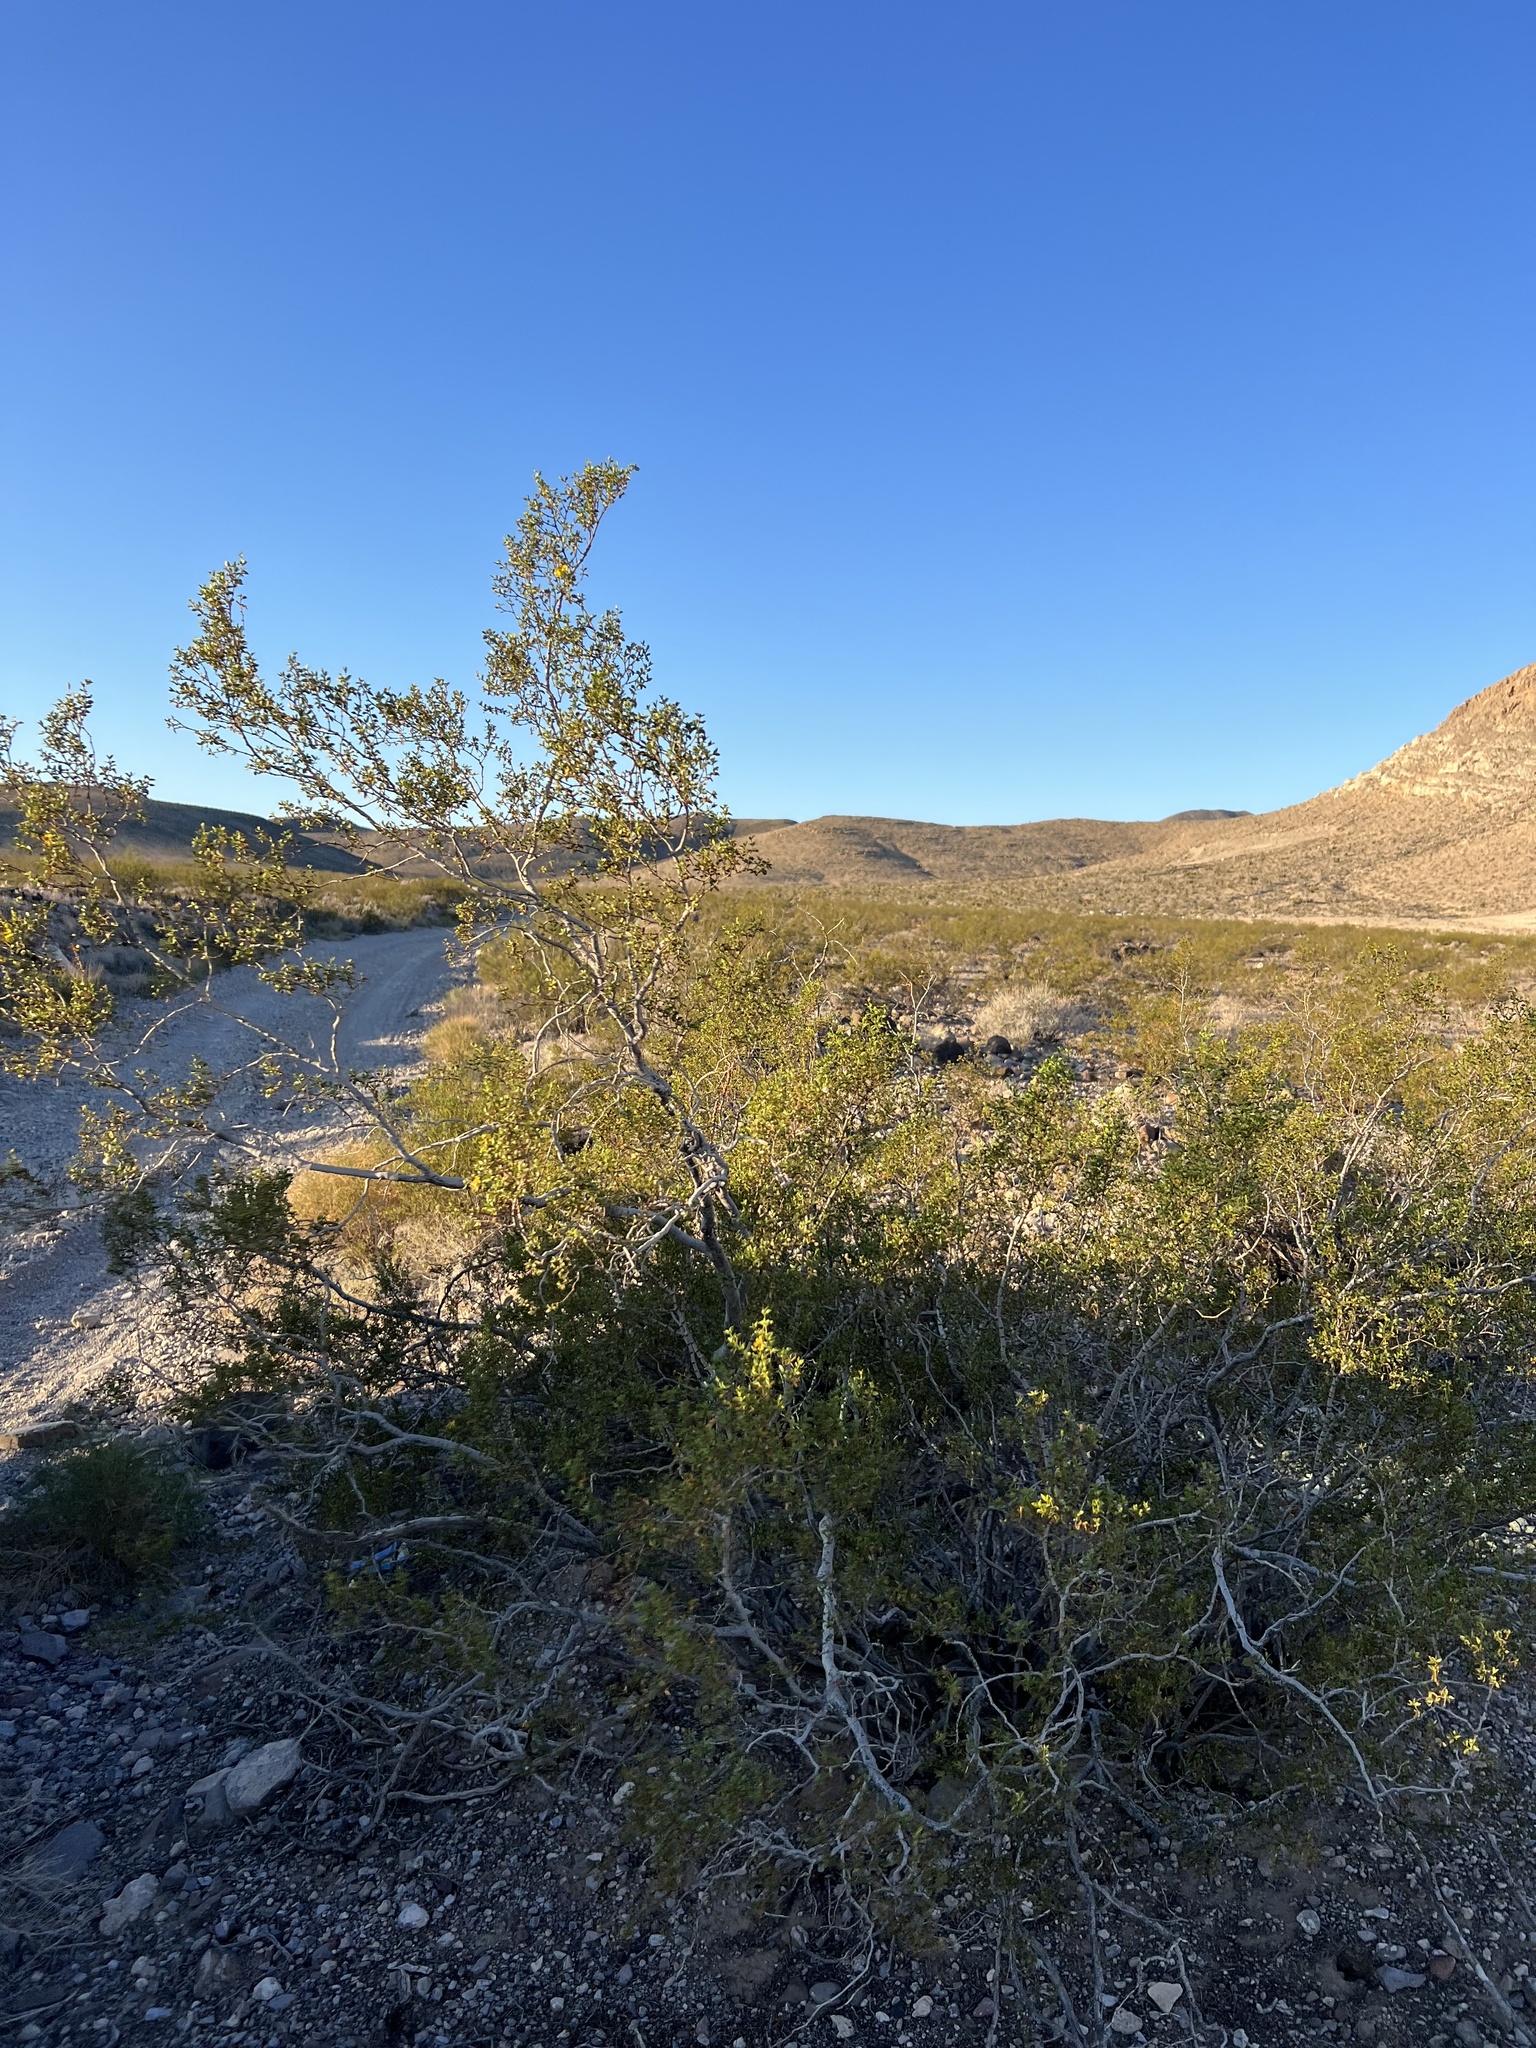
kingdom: Plantae
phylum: Tracheophyta
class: Magnoliopsida
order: Zygophyllales
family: Zygophyllaceae
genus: Larrea
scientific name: Larrea tridentata
